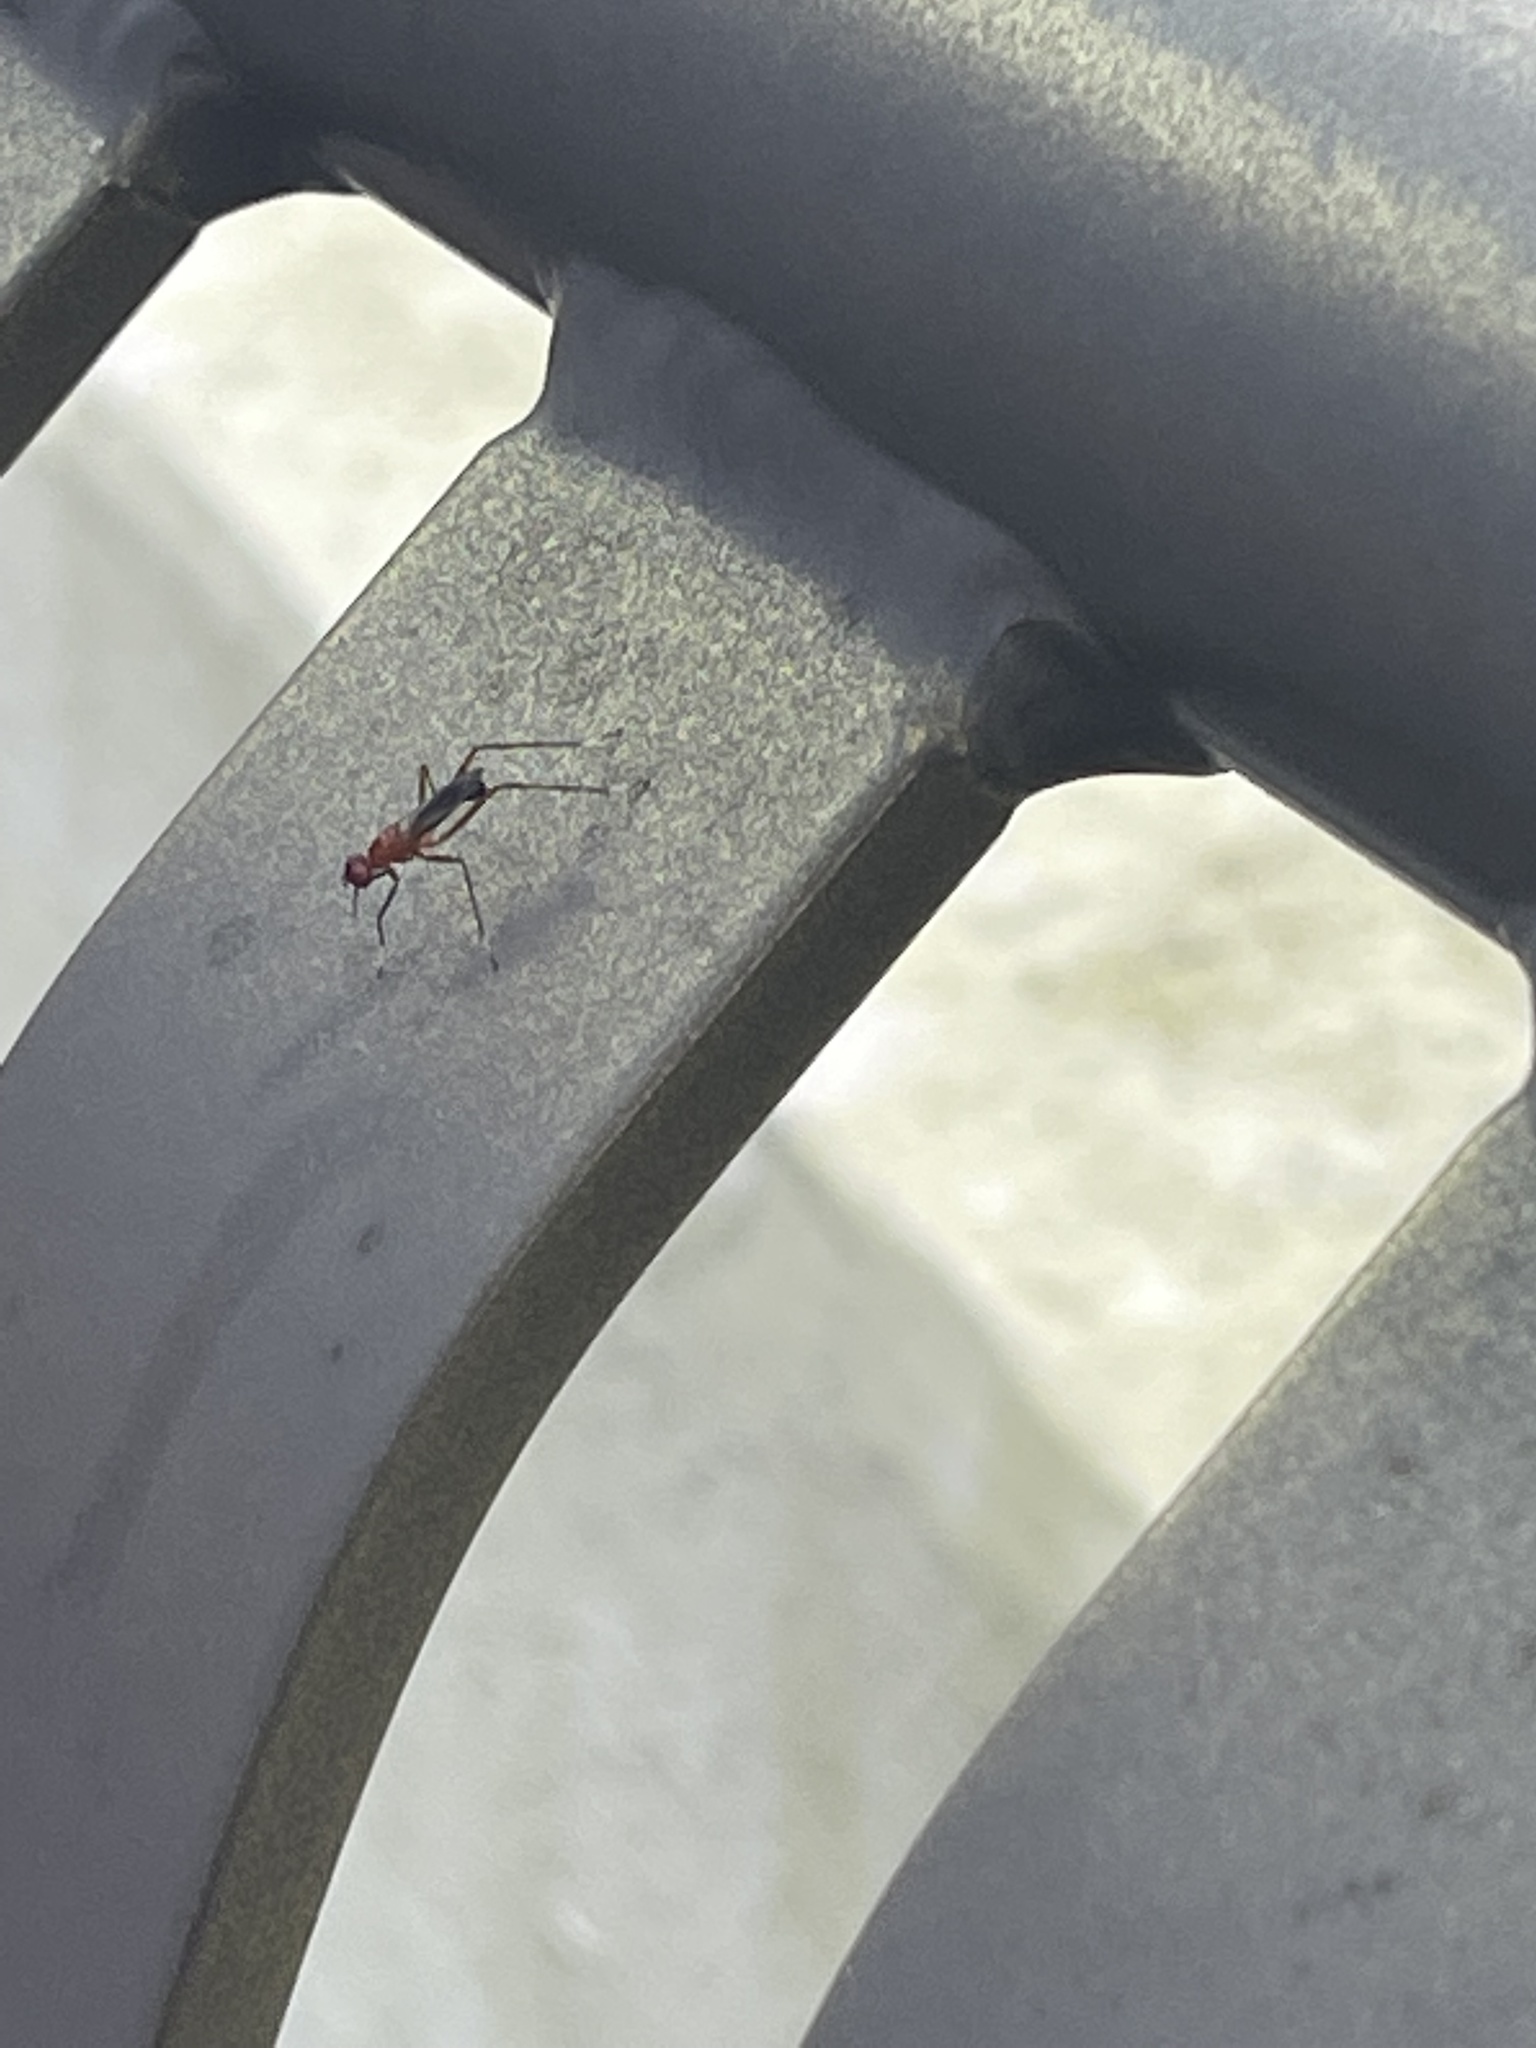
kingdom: Animalia
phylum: Arthropoda
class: Insecta
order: Diptera
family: Micropezidae
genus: Grallipeza
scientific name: Grallipeza nebulosa
